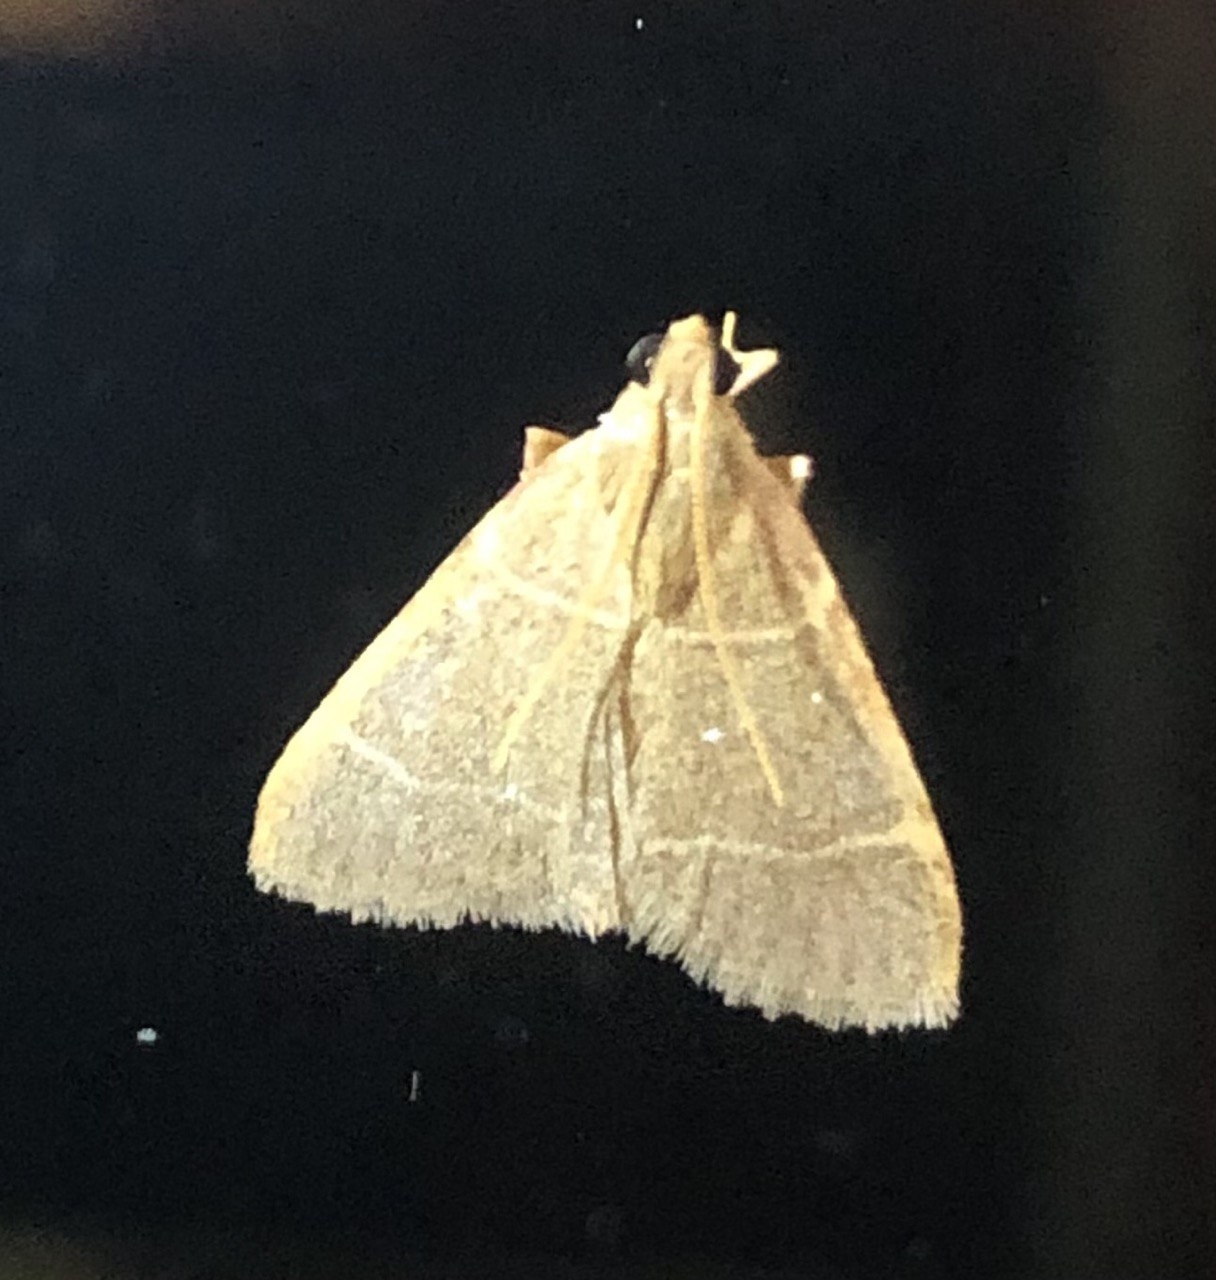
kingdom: Animalia
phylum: Arthropoda
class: Insecta
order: Lepidoptera
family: Pyralidae
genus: Hypsopygia
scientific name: Hypsopygia glaucinalis
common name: Double-striped tabby
